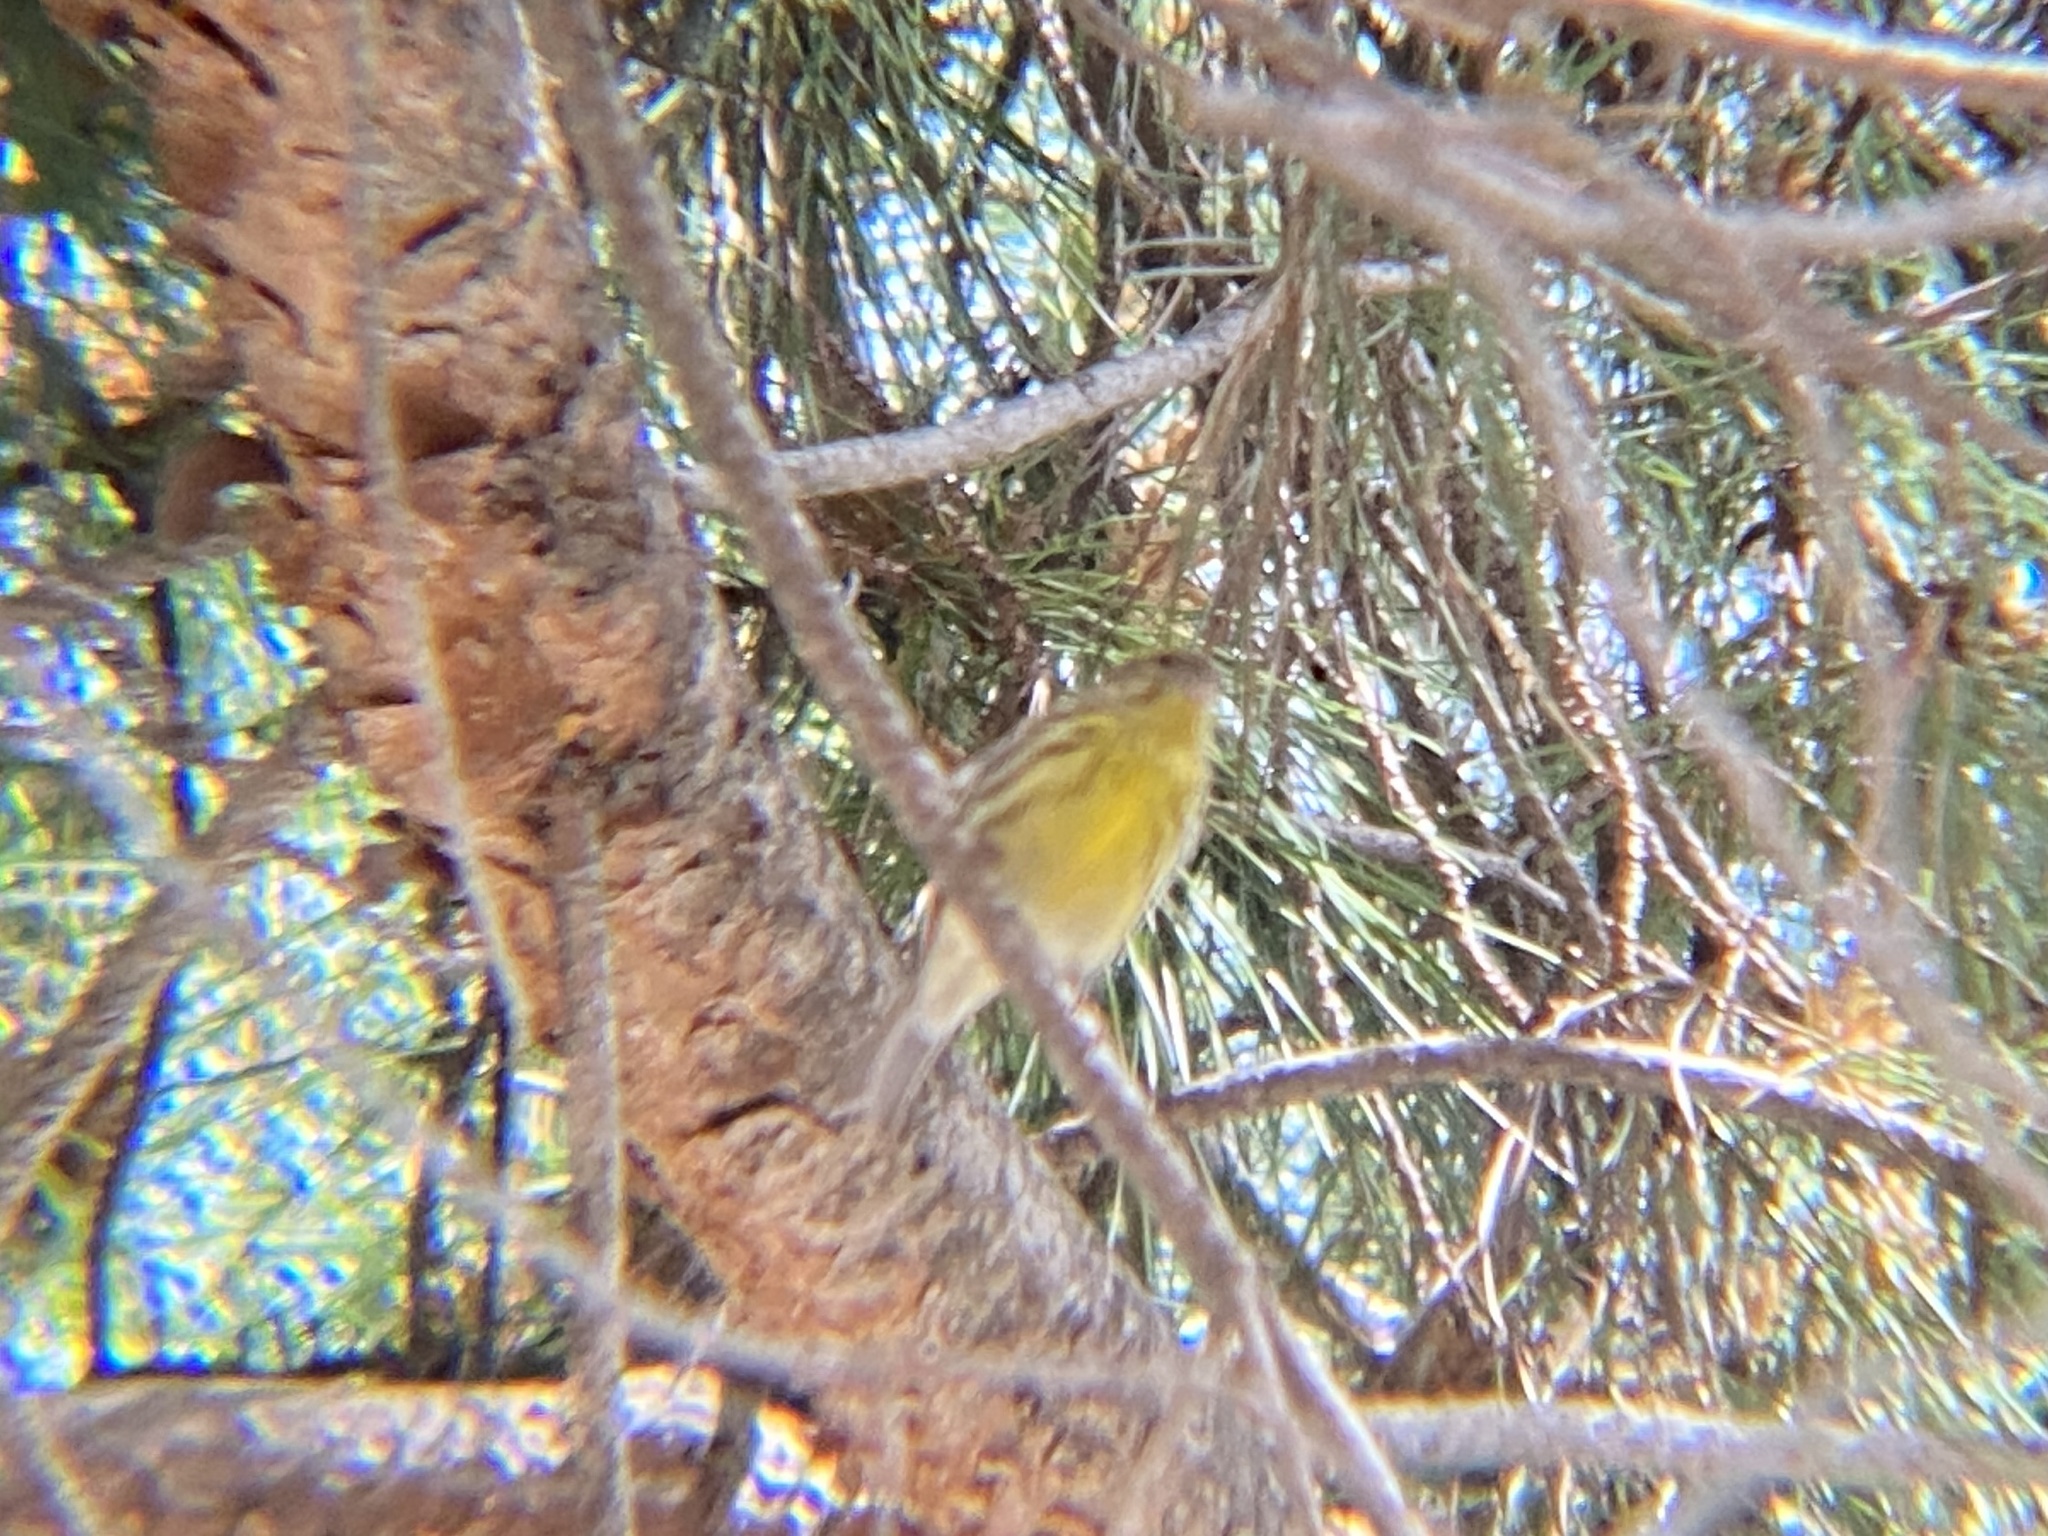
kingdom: Animalia
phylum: Chordata
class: Aves
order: Passeriformes
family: Fringillidae
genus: Serinus
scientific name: Serinus serinus
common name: European serin
